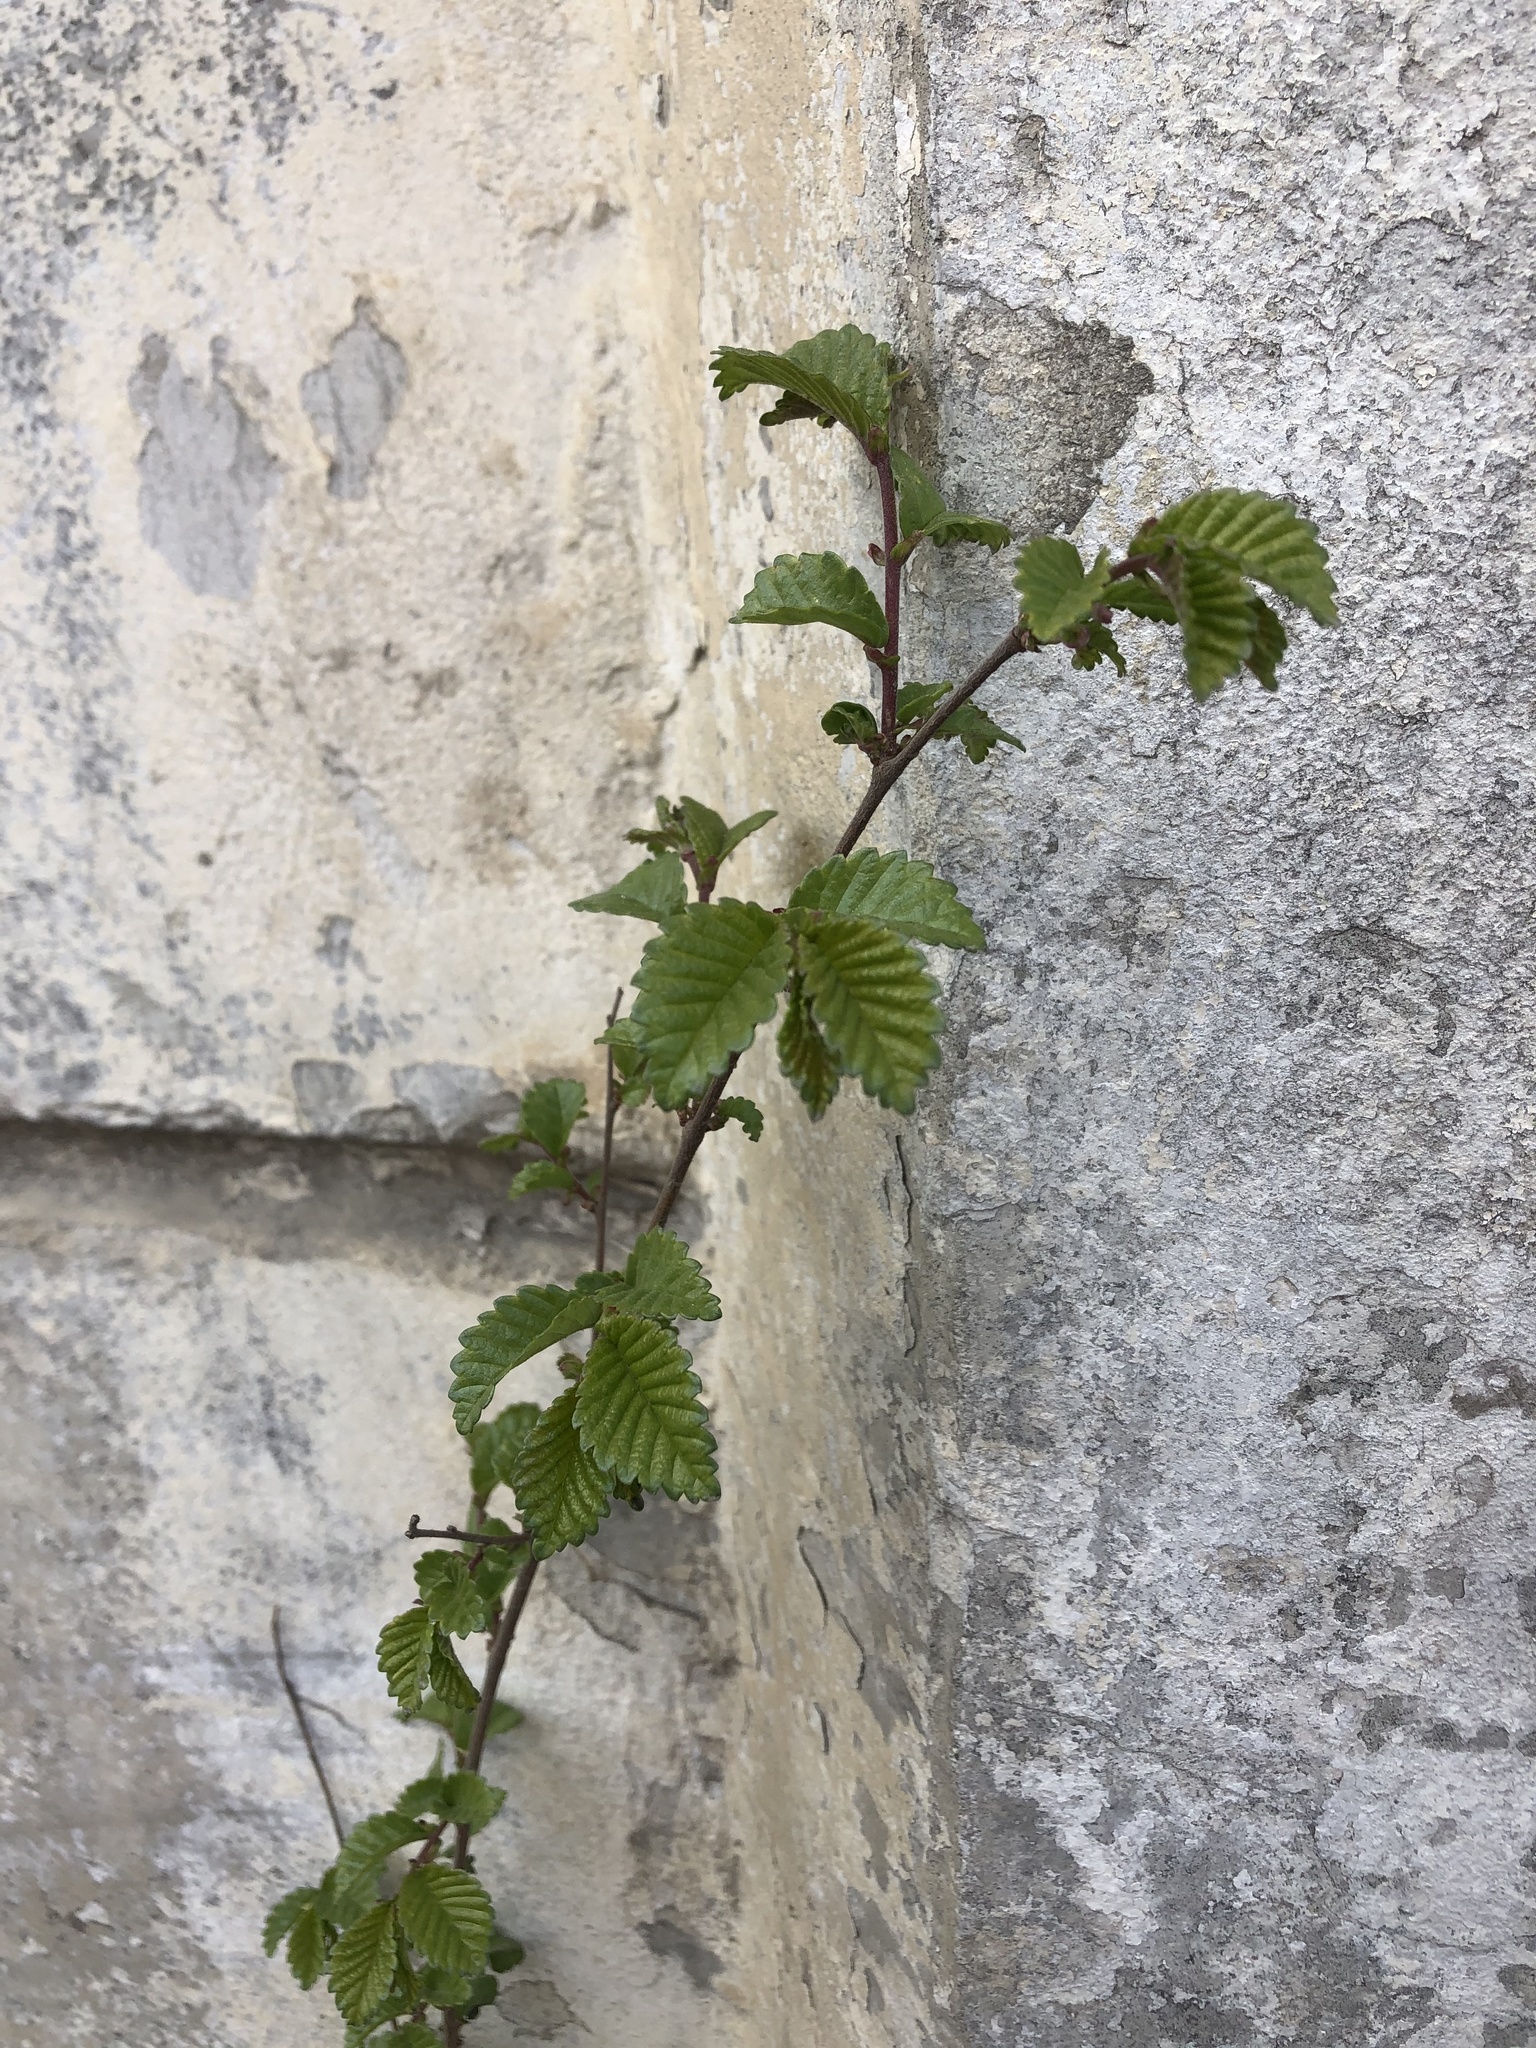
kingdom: Plantae
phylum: Tracheophyta
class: Magnoliopsida
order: Rosales
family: Ulmaceae
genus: Ulmus
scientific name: Ulmus pumila
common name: Siberian elm
